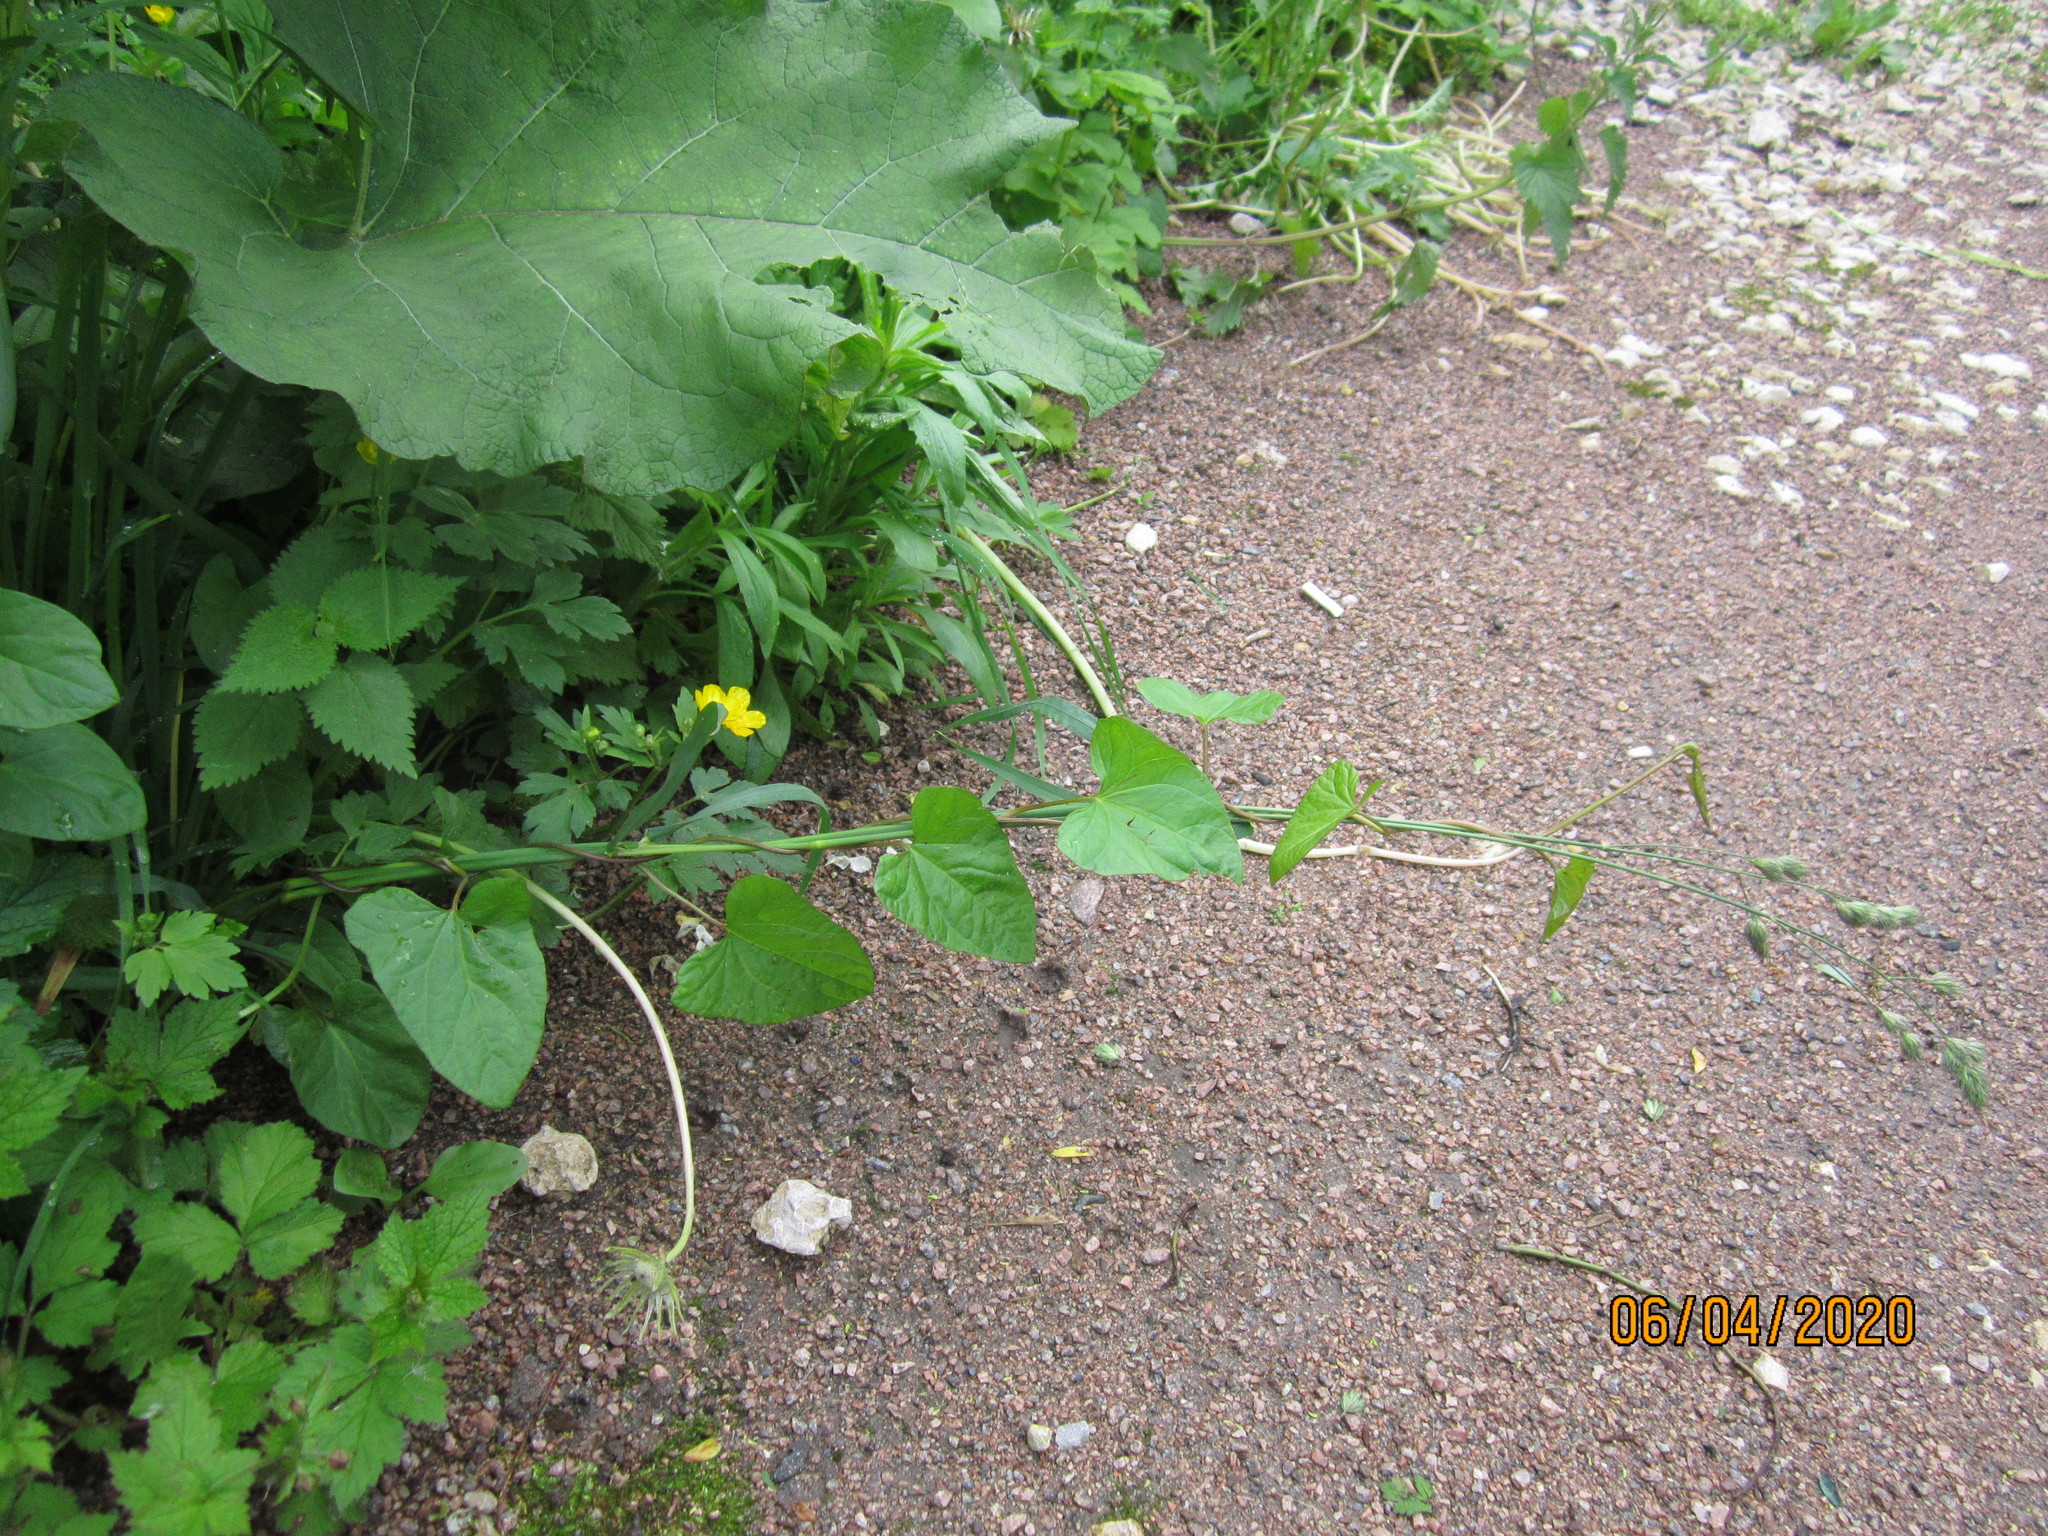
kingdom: Plantae
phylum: Tracheophyta
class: Magnoliopsida
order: Solanales
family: Convolvulaceae
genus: Calystegia
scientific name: Calystegia
